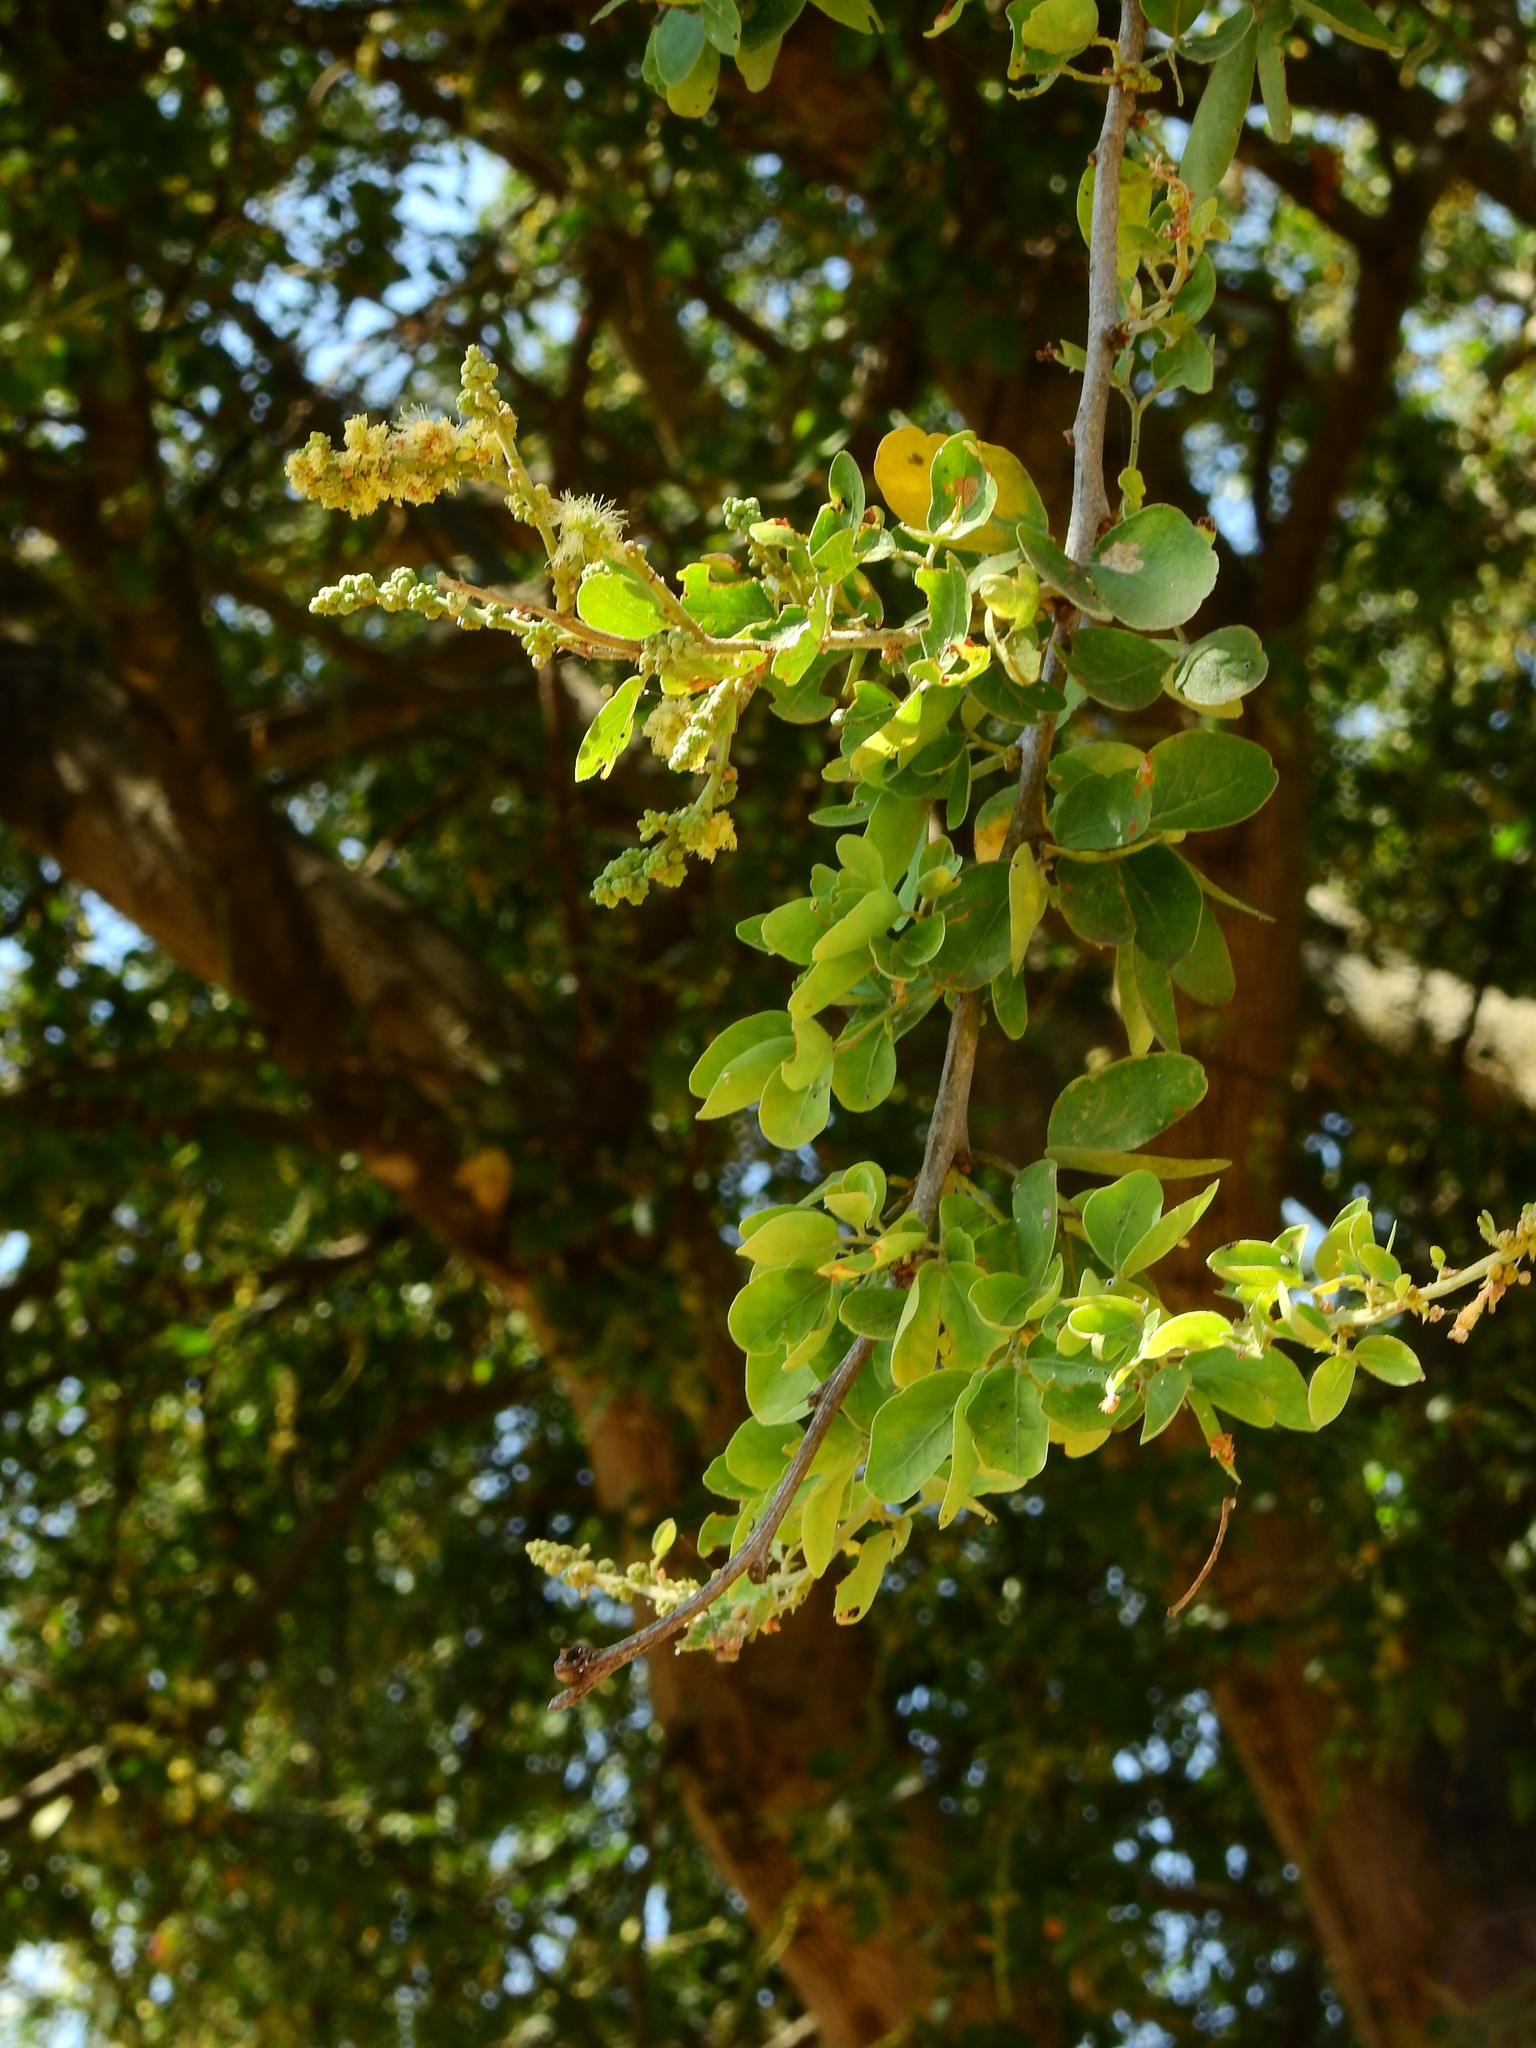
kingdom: Plantae
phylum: Tracheophyta
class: Magnoliopsida
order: Fabales
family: Fabaceae
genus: Pithecellobium
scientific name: Pithecellobium dulce
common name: Monkeypod
